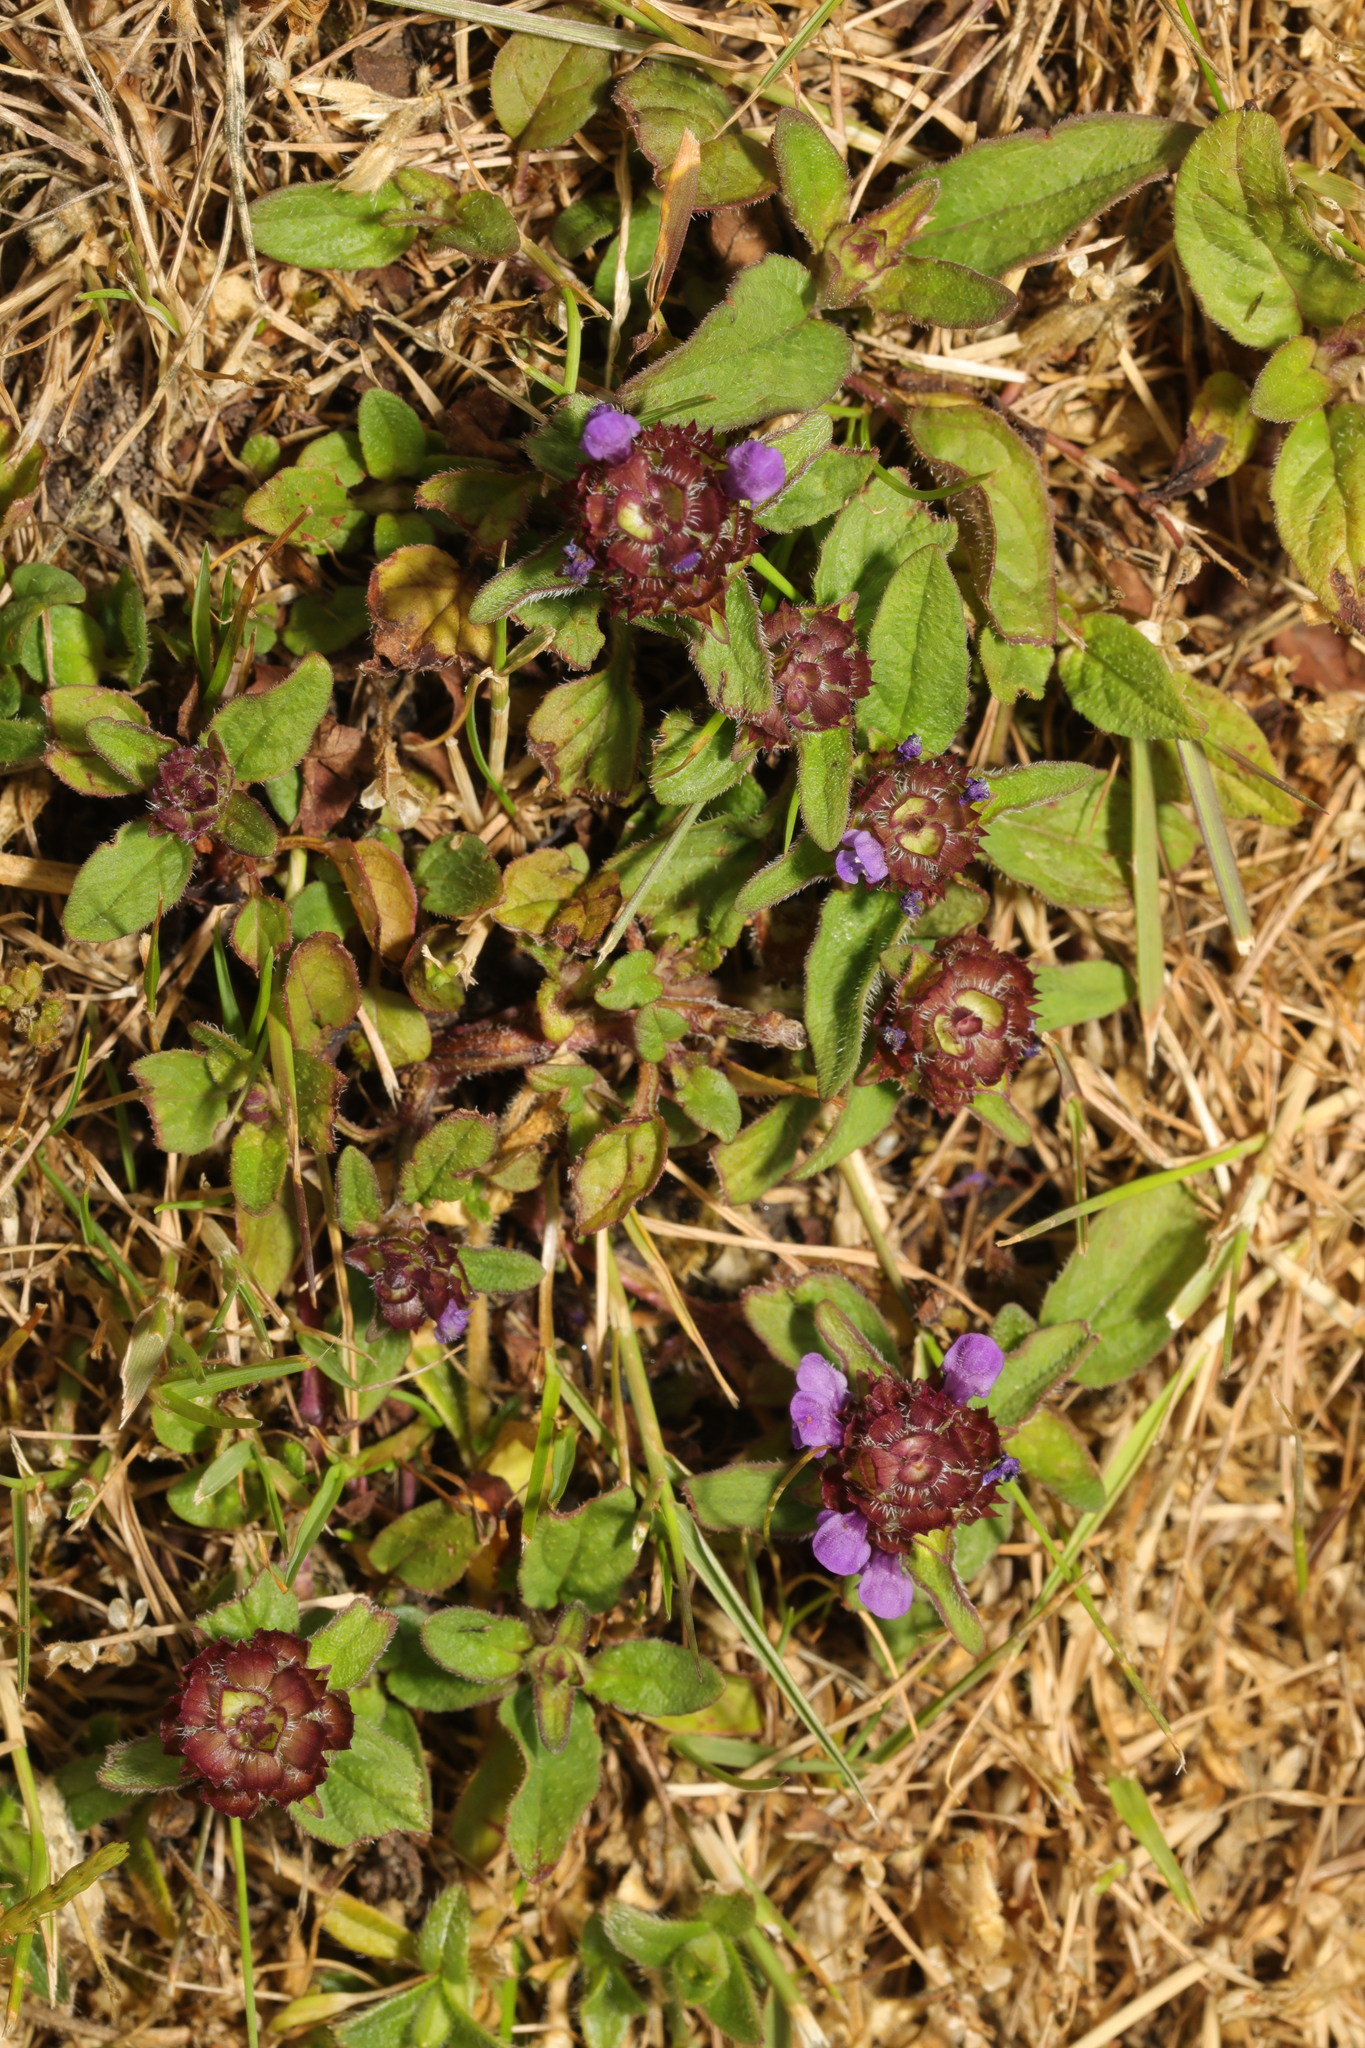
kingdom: Plantae
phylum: Tracheophyta
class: Magnoliopsida
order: Lamiales
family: Lamiaceae
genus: Prunella
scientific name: Prunella vulgaris
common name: Heal-all
